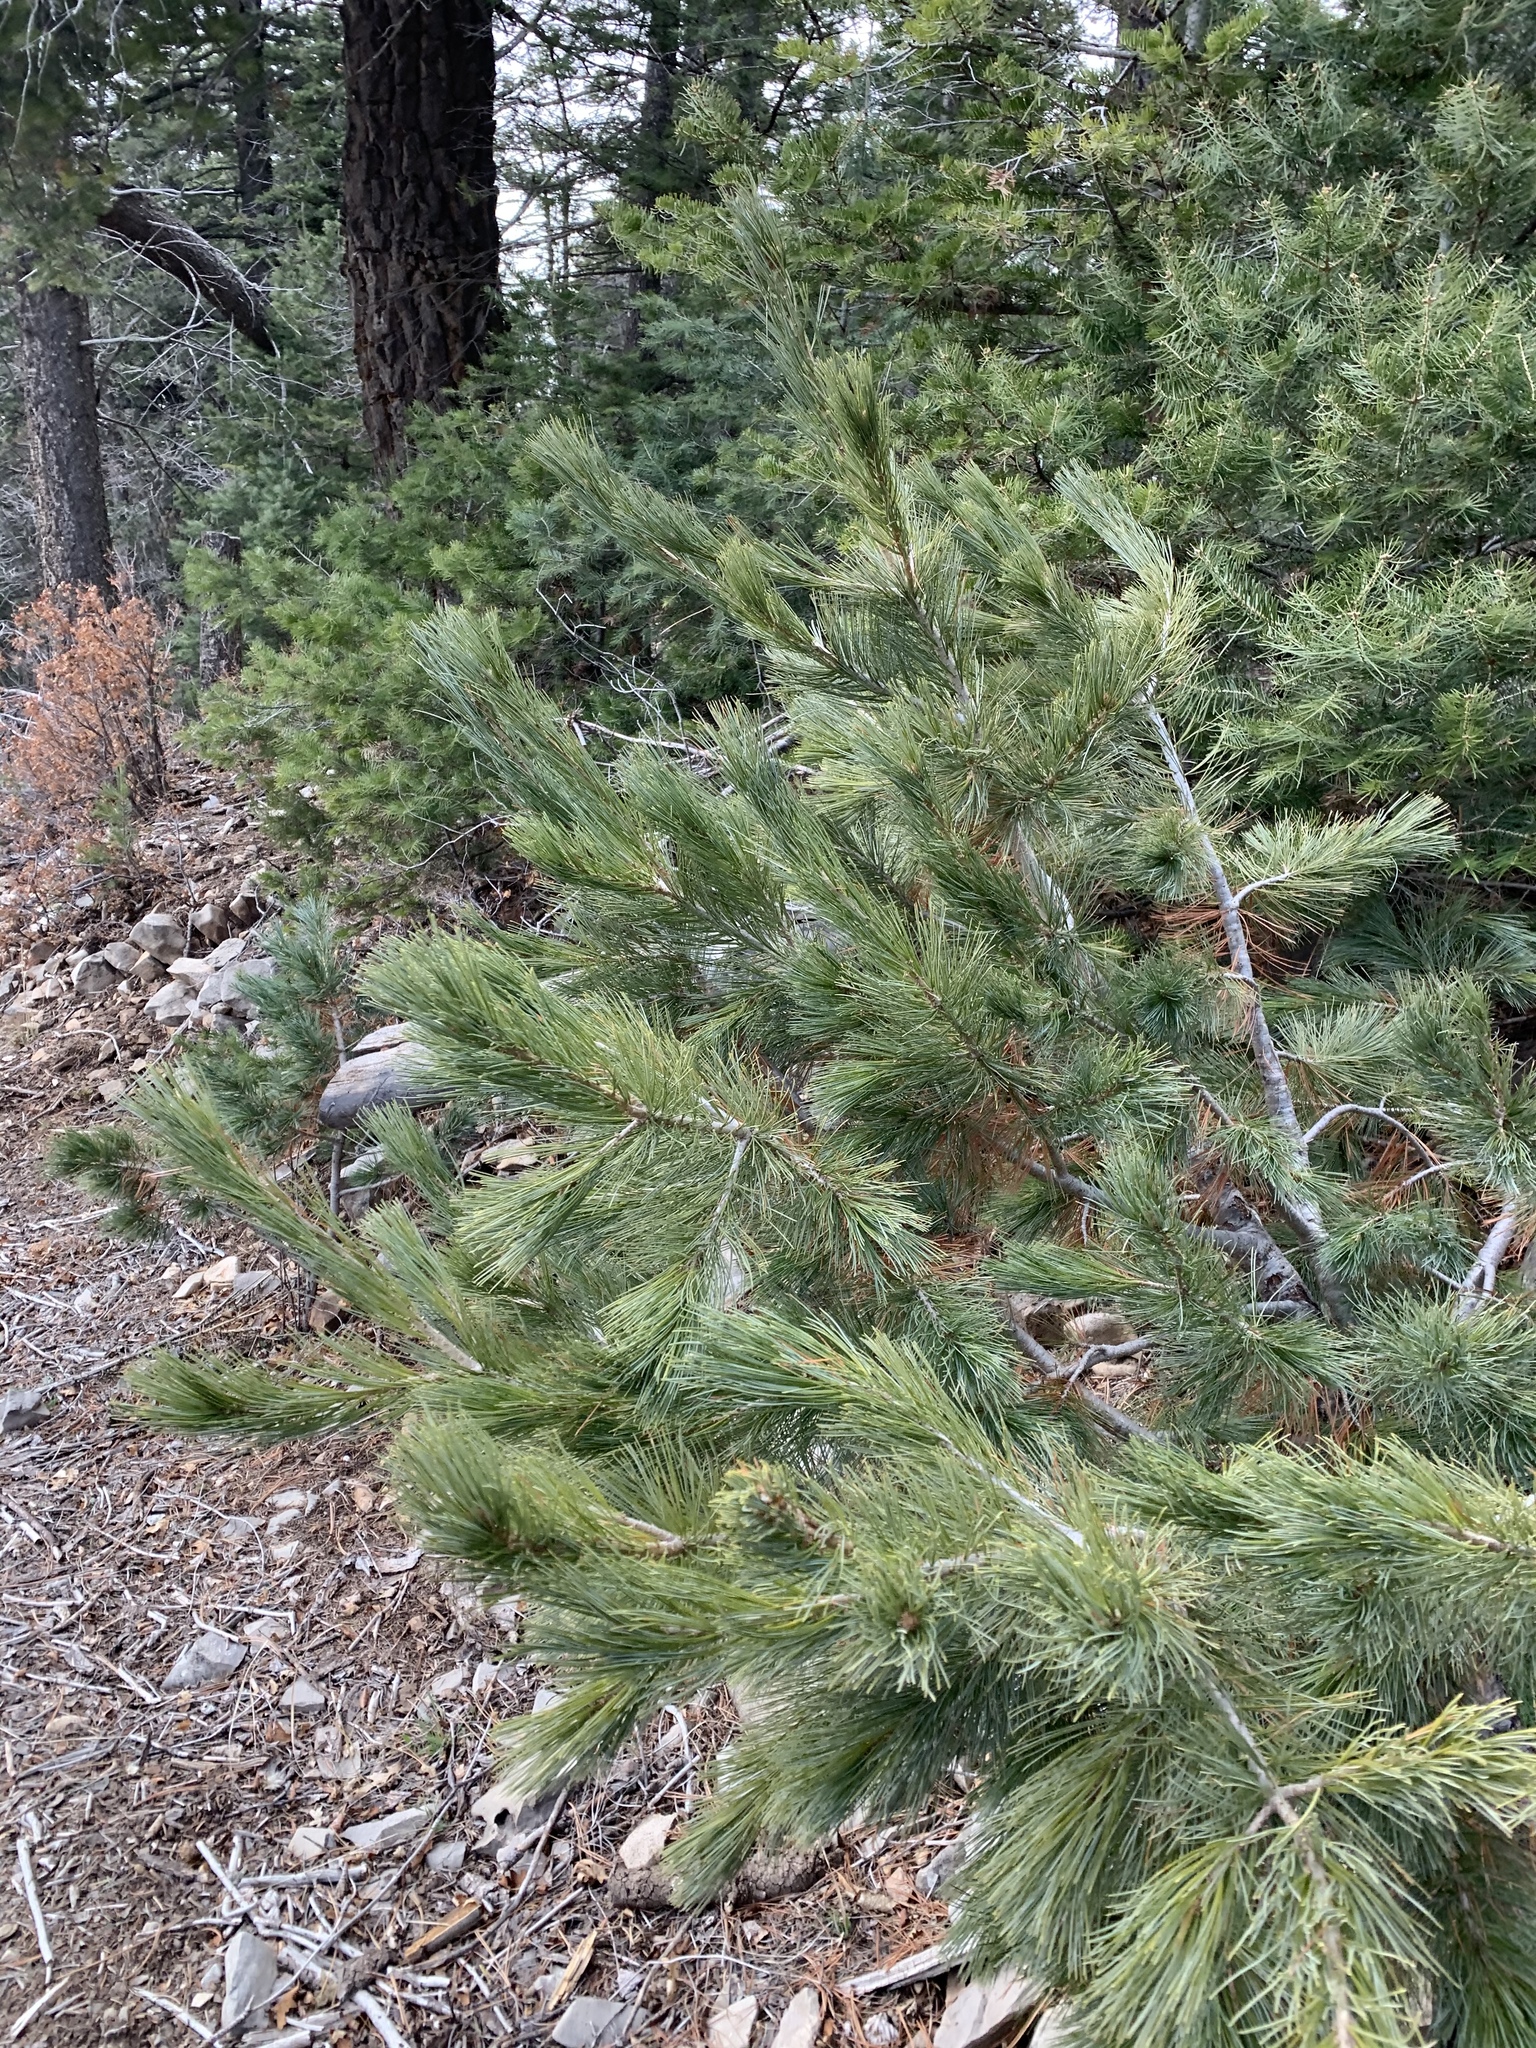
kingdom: Plantae
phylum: Tracheophyta
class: Pinopsida
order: Pinales
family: Pinaceae
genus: Pinus
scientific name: Pinus strobiformis
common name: Southwestern white pine
